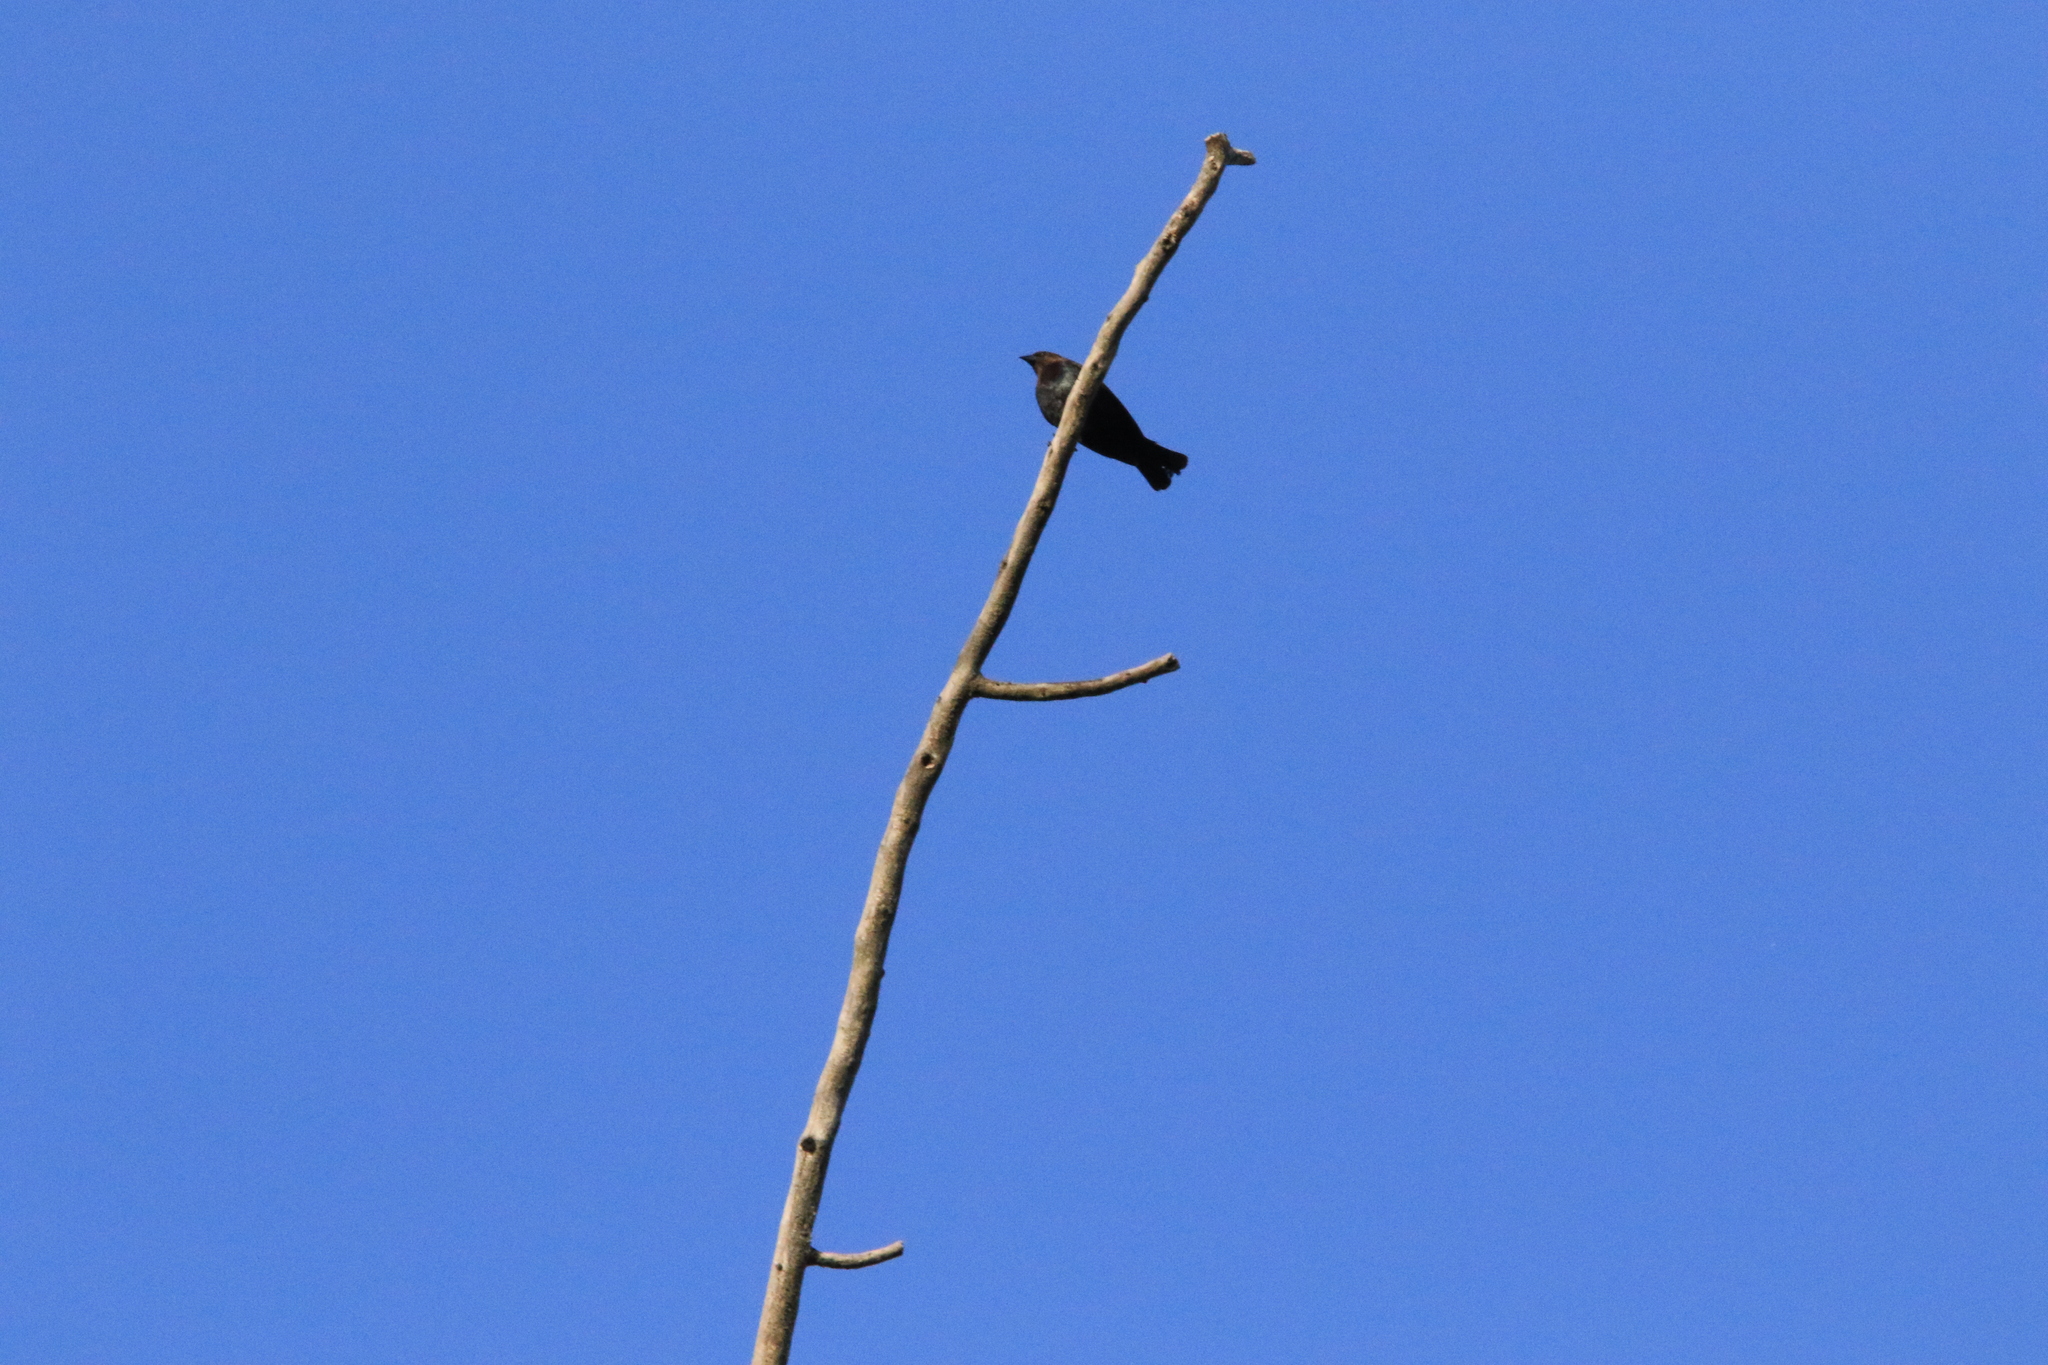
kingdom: Animalia
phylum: Chordata
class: Aves
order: Passeriformes
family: Icteridae
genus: Molothrus
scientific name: Molothrus ater
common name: Brown-headed cowbird
